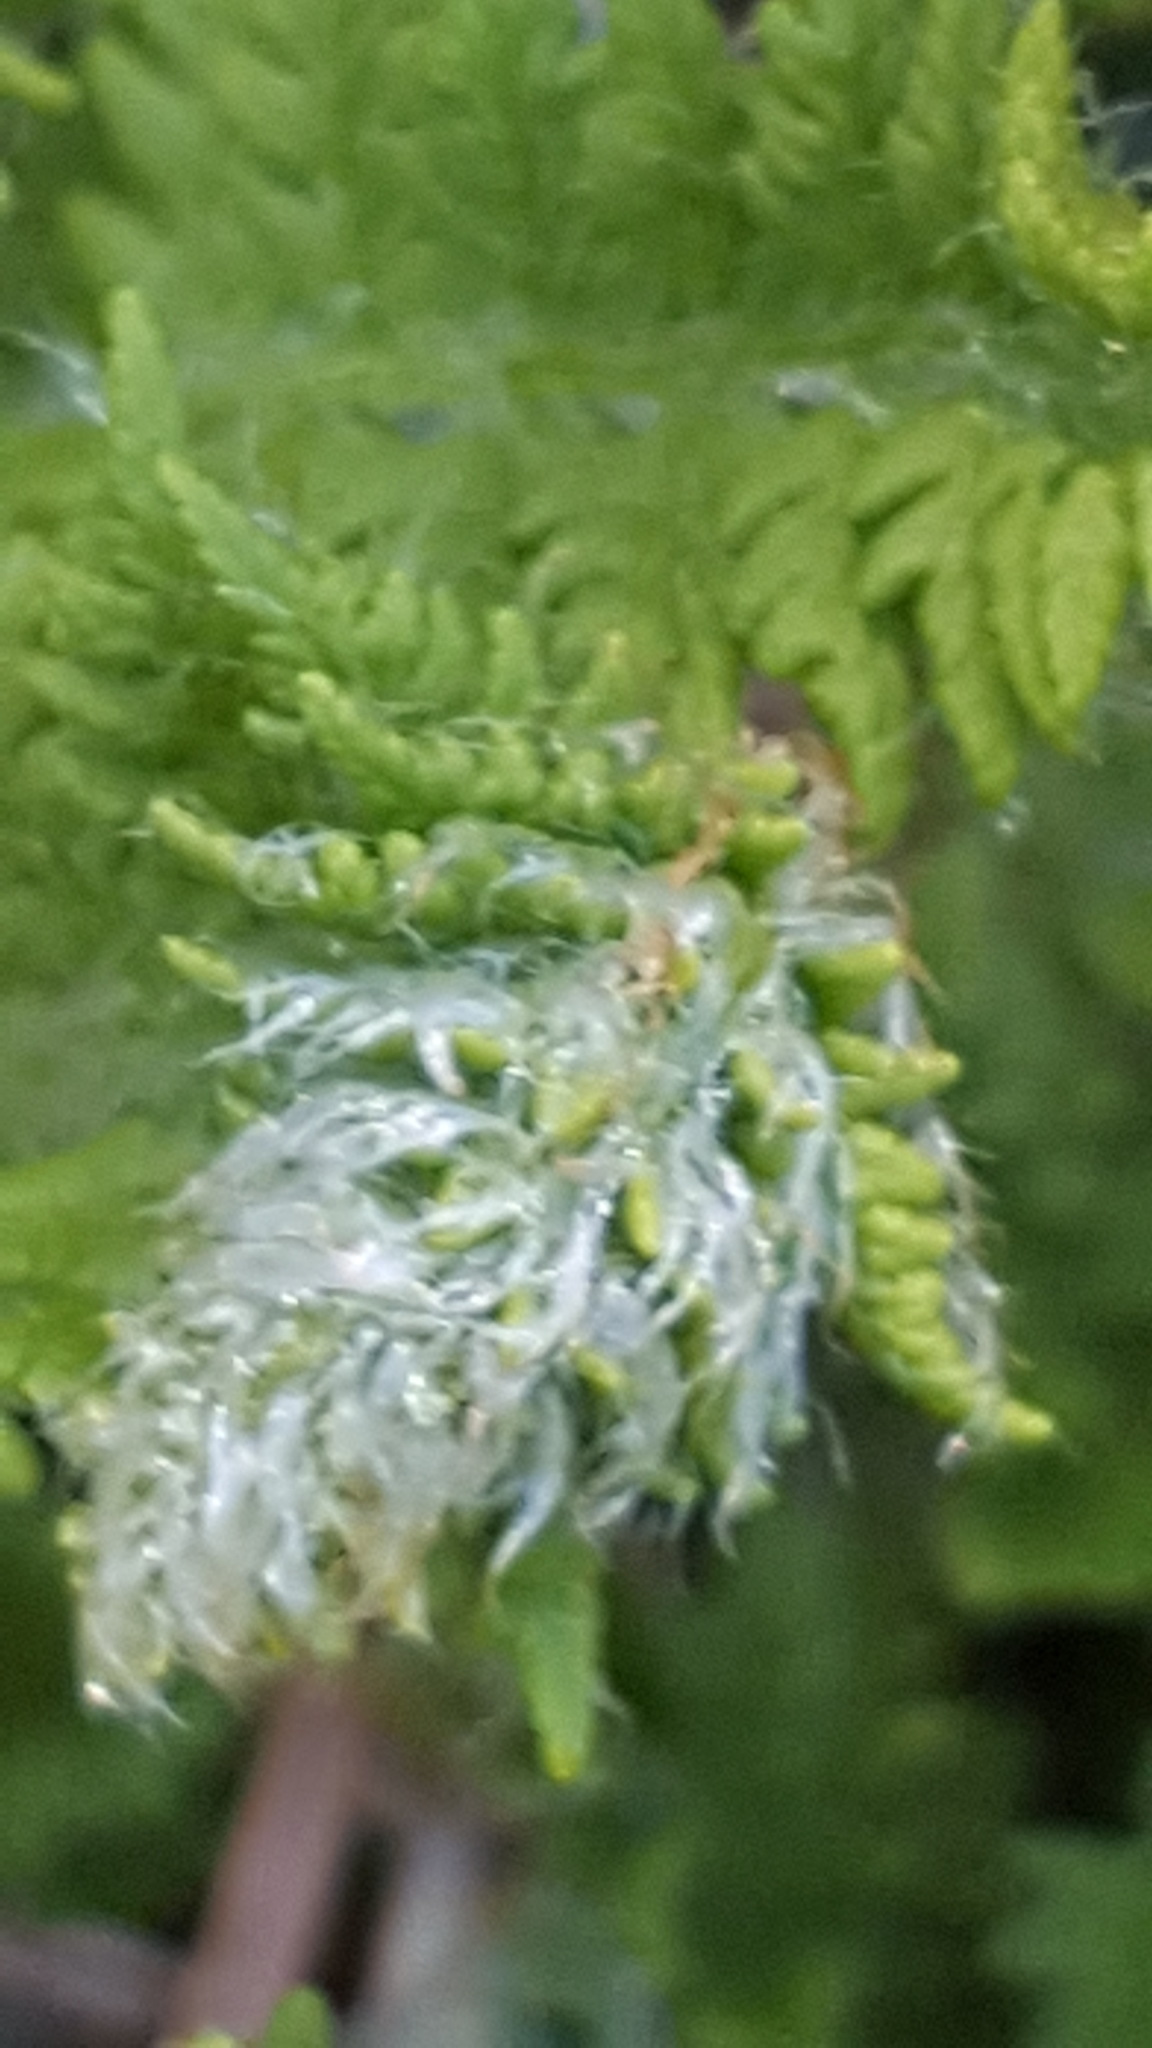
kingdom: Plantae
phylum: Tracheophyta
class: Polypodiopsida
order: Polypodiales
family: Woodsiaceae
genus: Woodsia
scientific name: Woodsia ilvensis
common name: Fragrant woodsia
